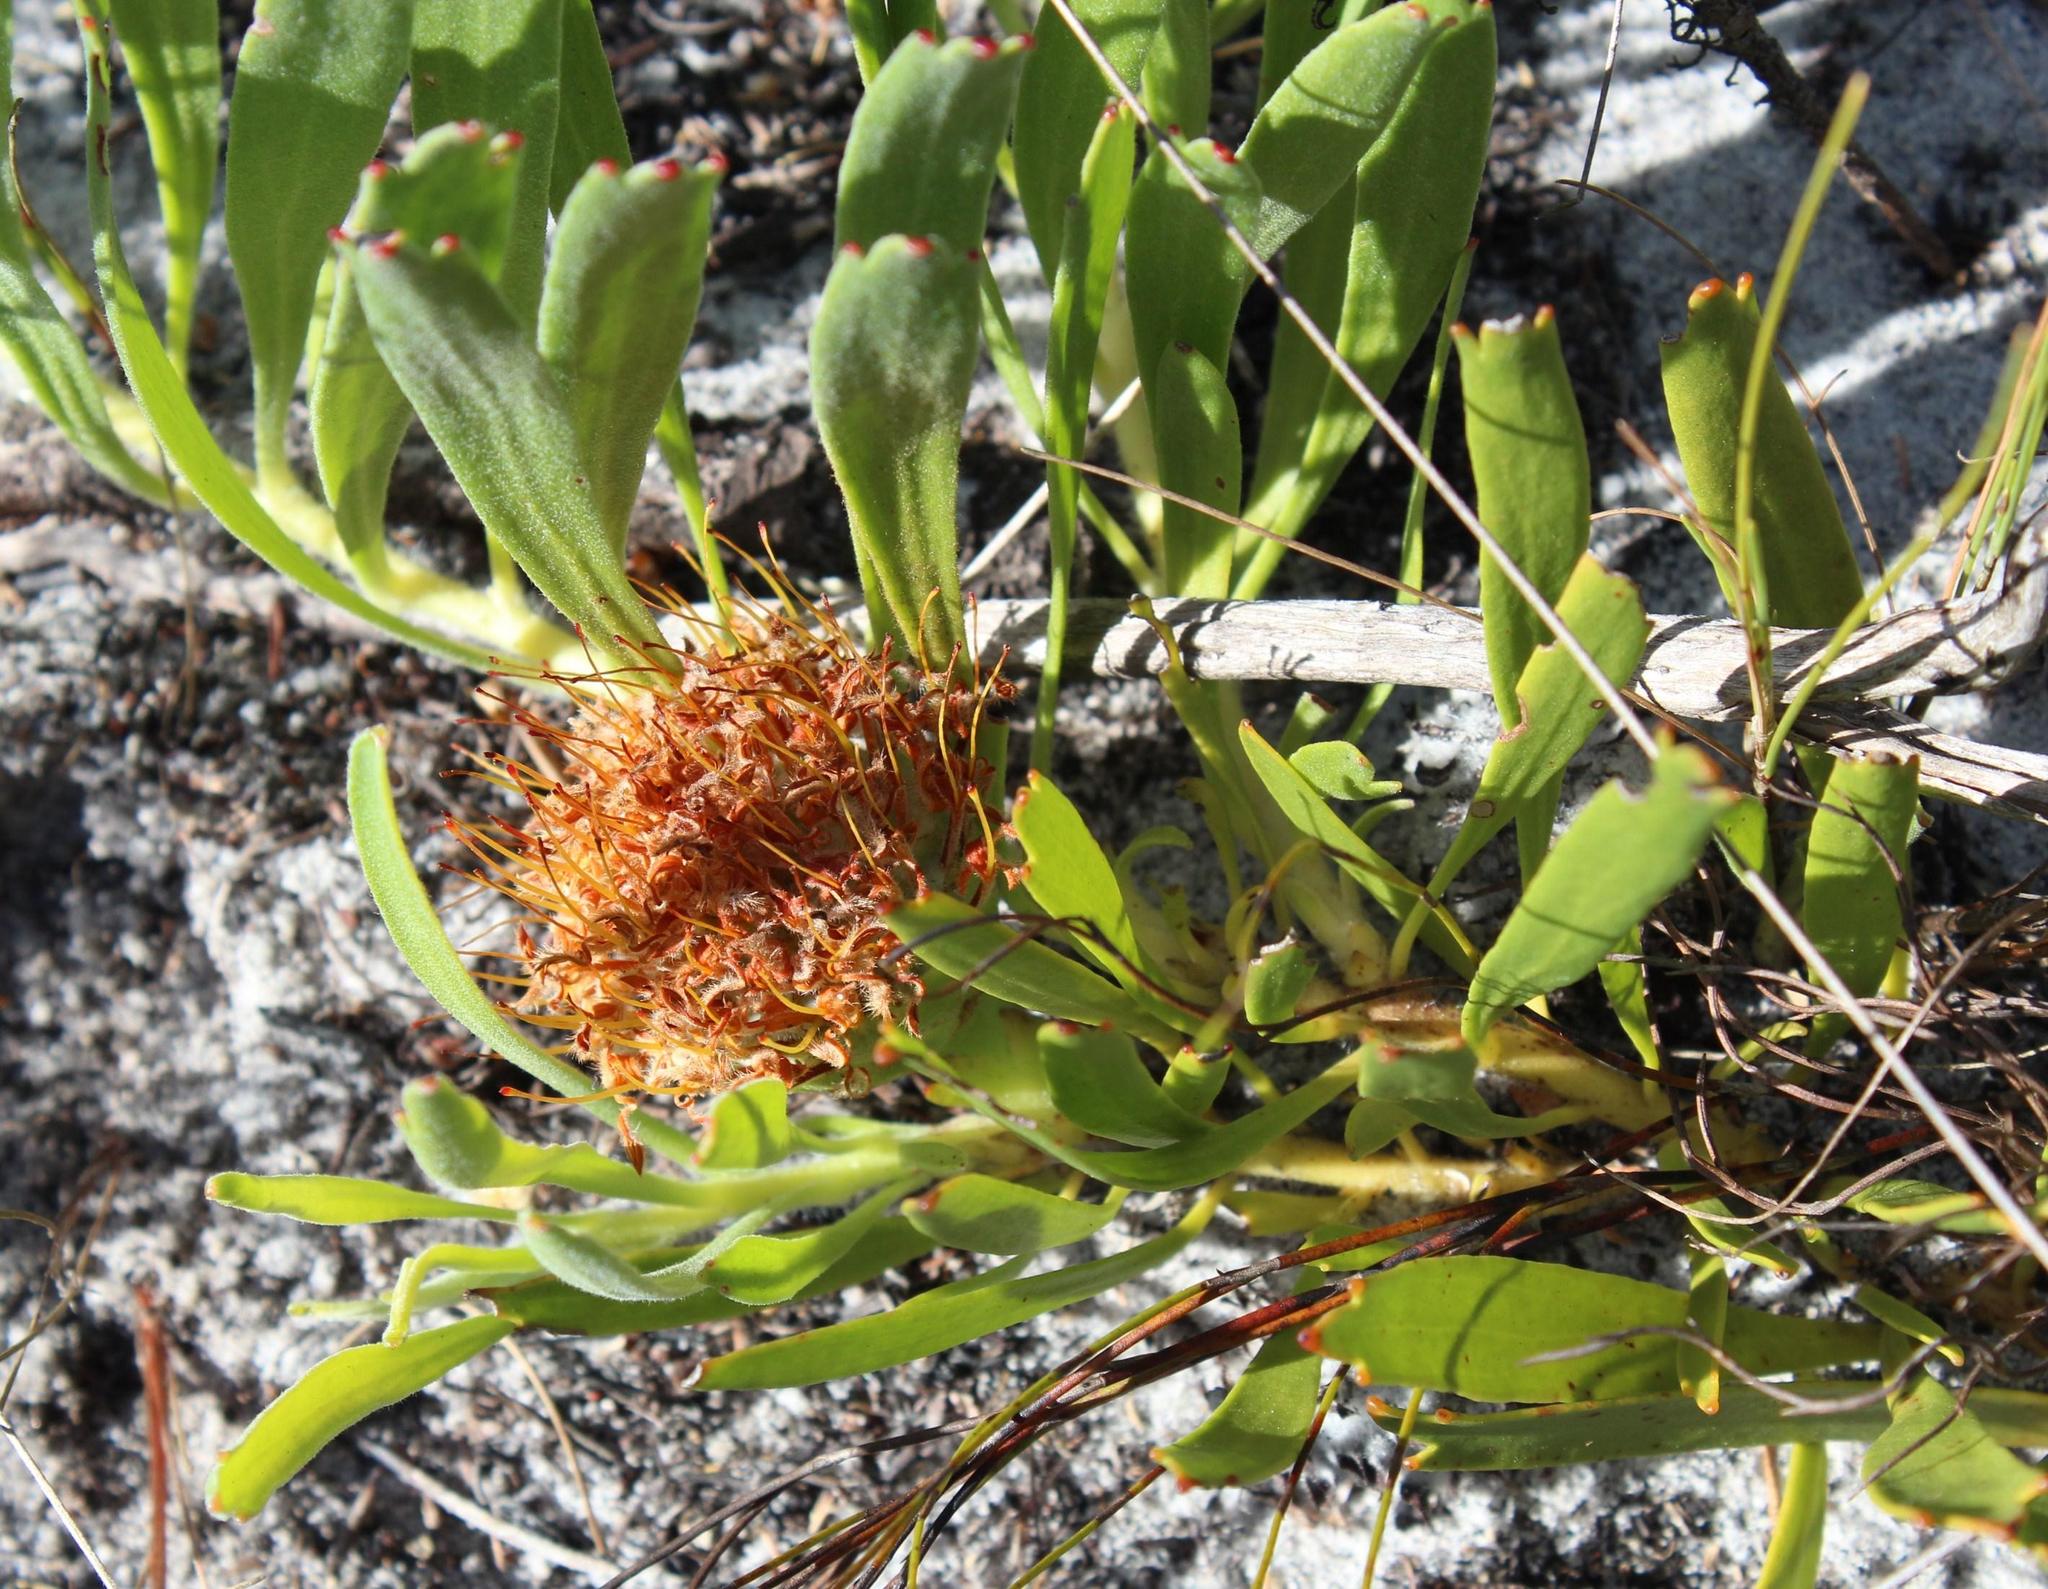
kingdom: Plantae
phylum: Tracheophyta
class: Magnoliopsida
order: Proteales
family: Proteaceae
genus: Leucospermum
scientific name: Leucospermum hypophyllocarpodendron
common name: Snakestem pincushion
